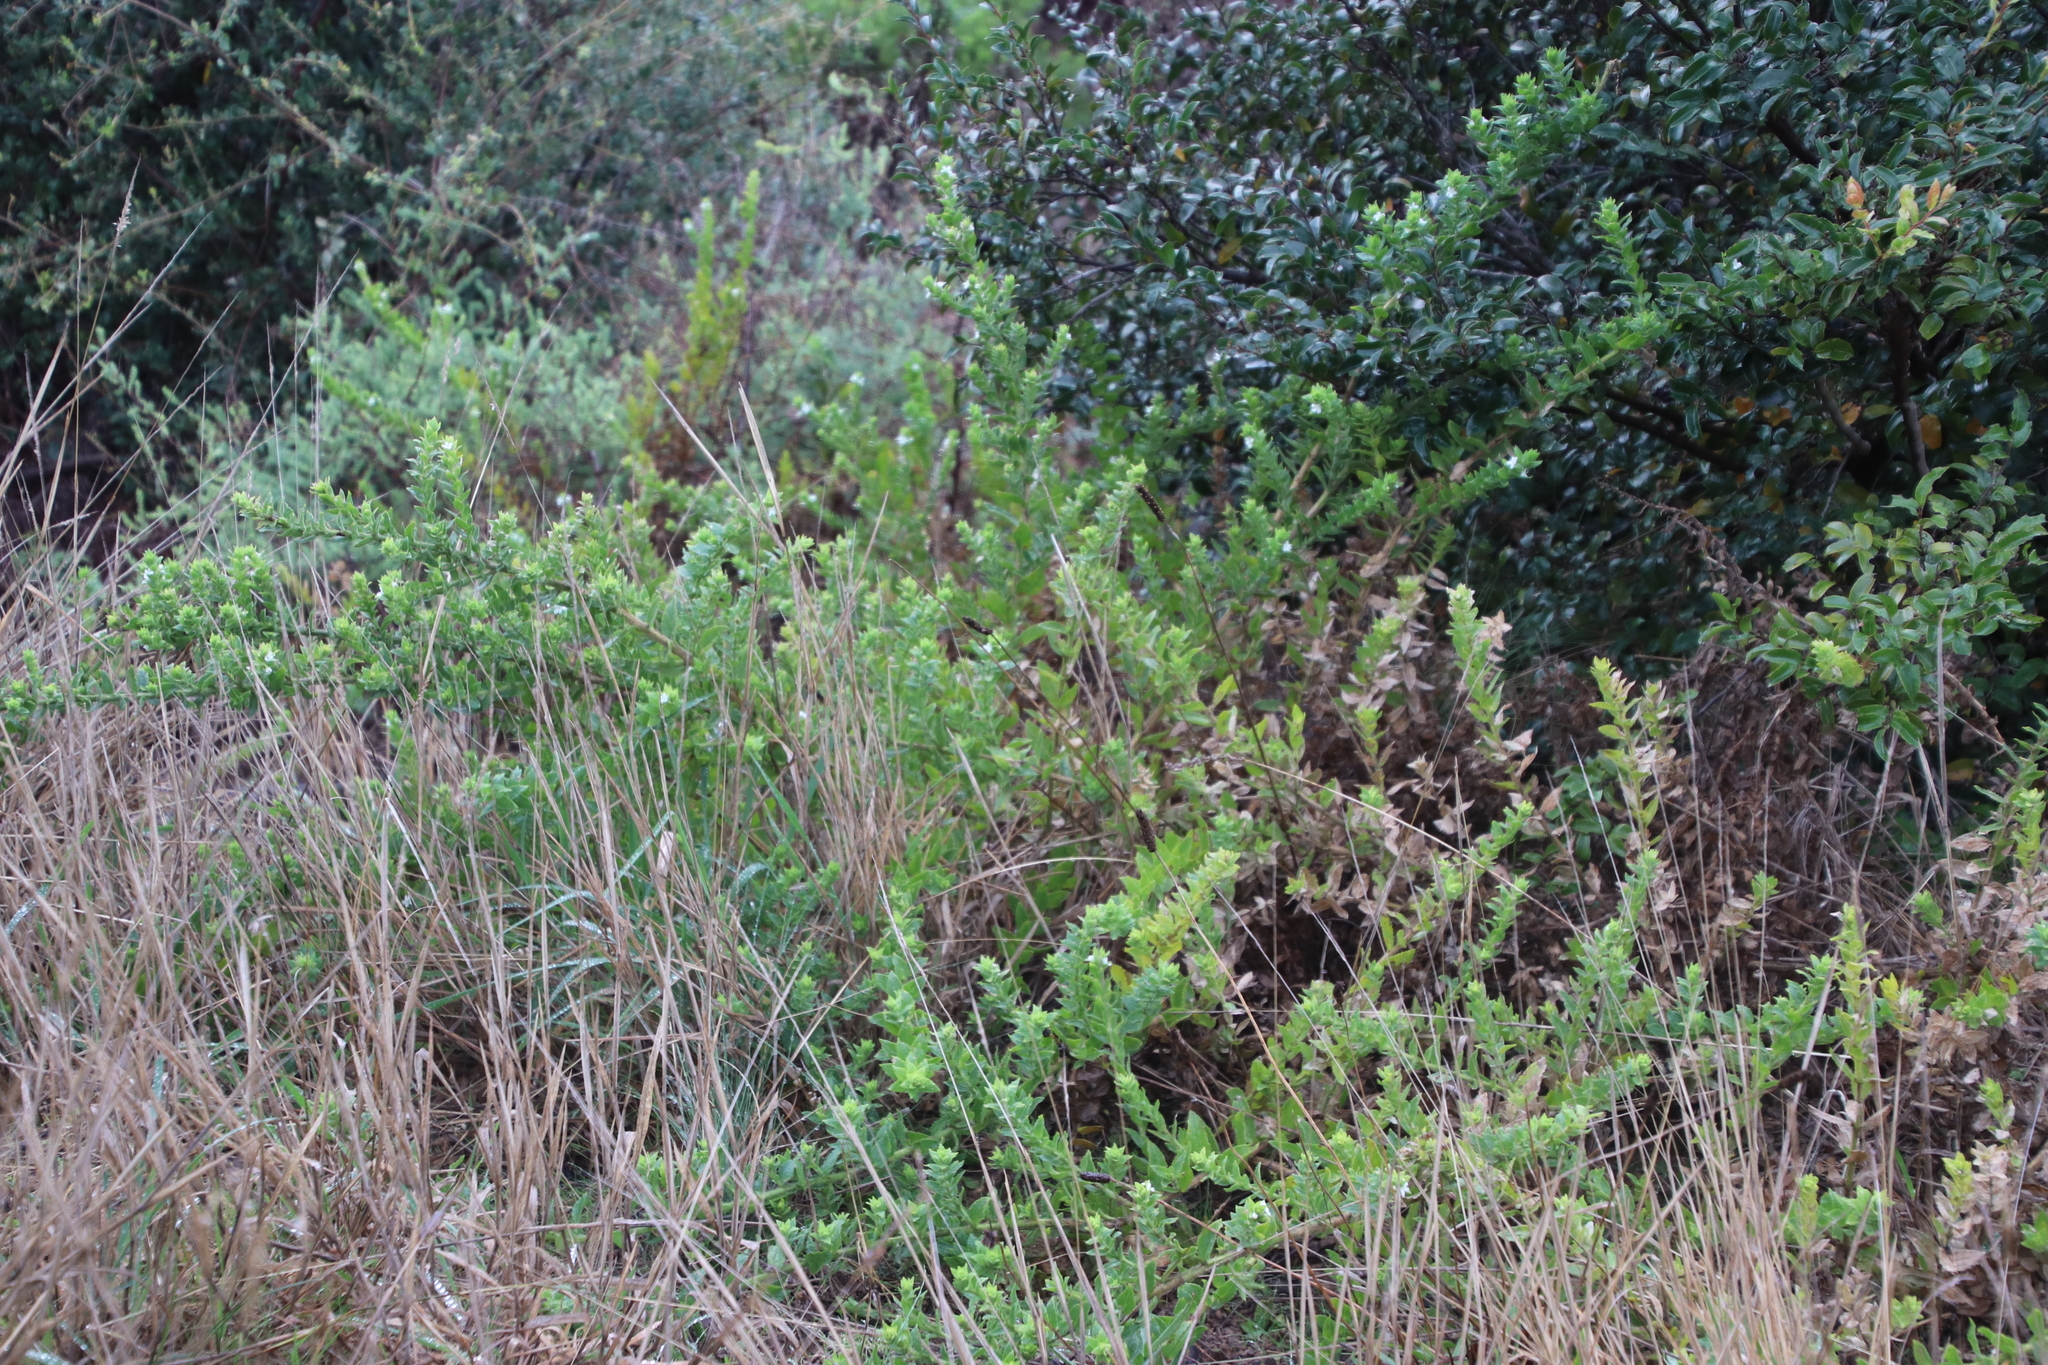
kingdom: Plantae
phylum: Tracheophyta
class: Magnoliopsida
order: Lamiales
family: Scrophulariaceae
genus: Oftia
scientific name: Oftia africana
